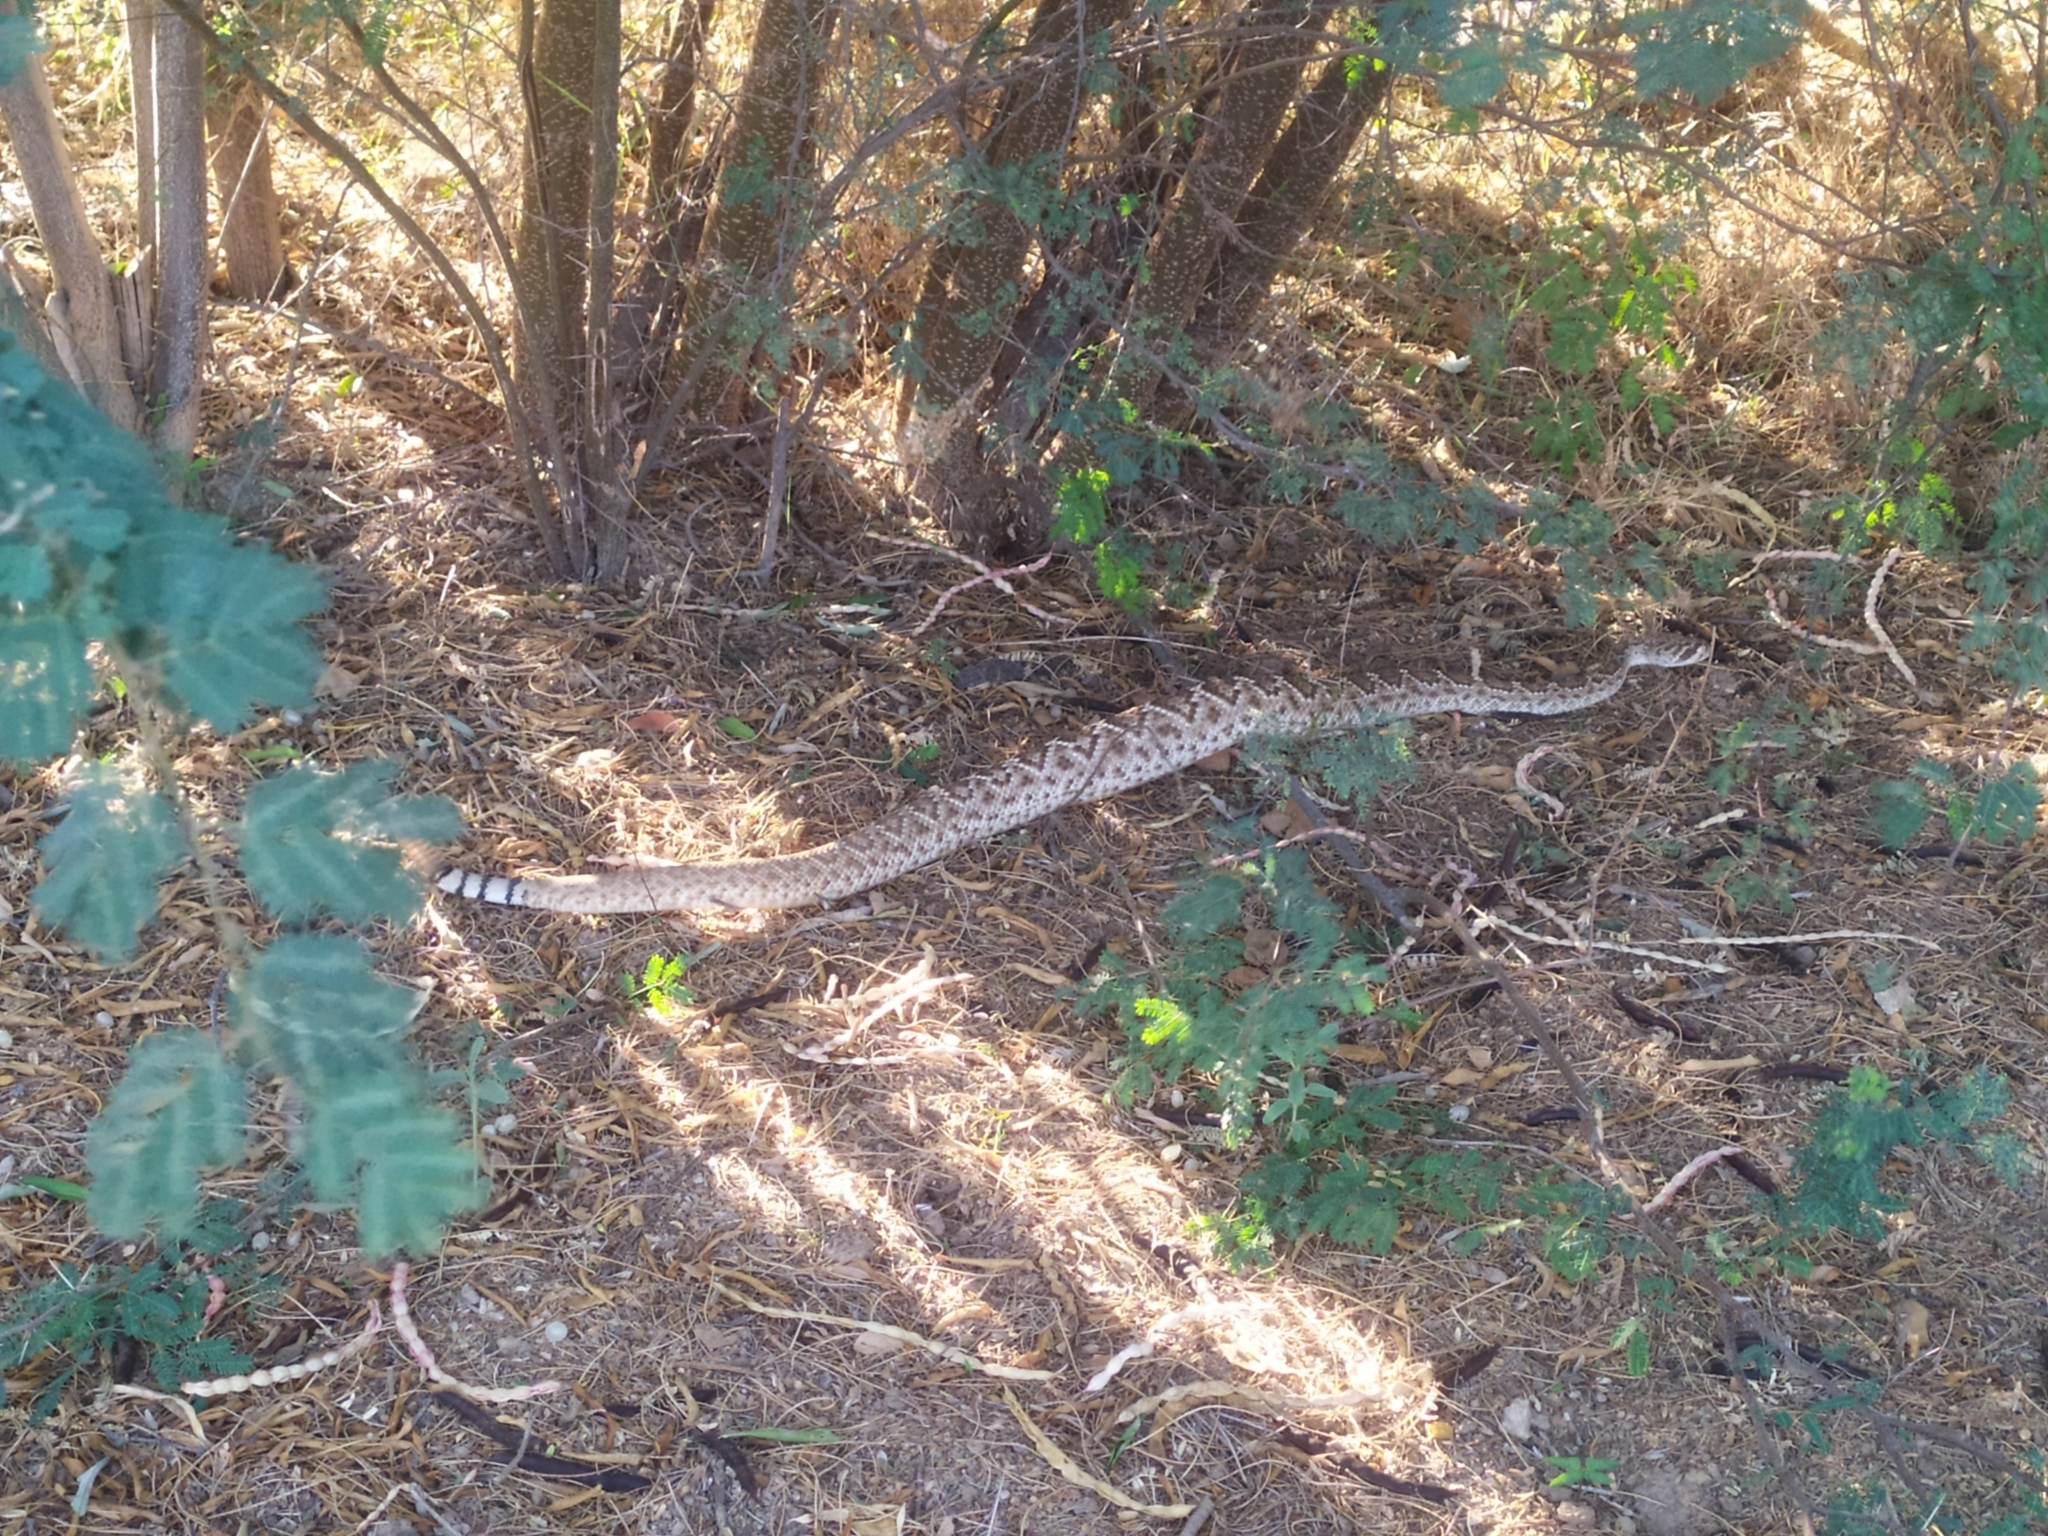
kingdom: Animalia
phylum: Chordata
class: Squamata
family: Viperidae
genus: Crotalus
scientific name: Crotalus ruber
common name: Red diamond rattlesnake
